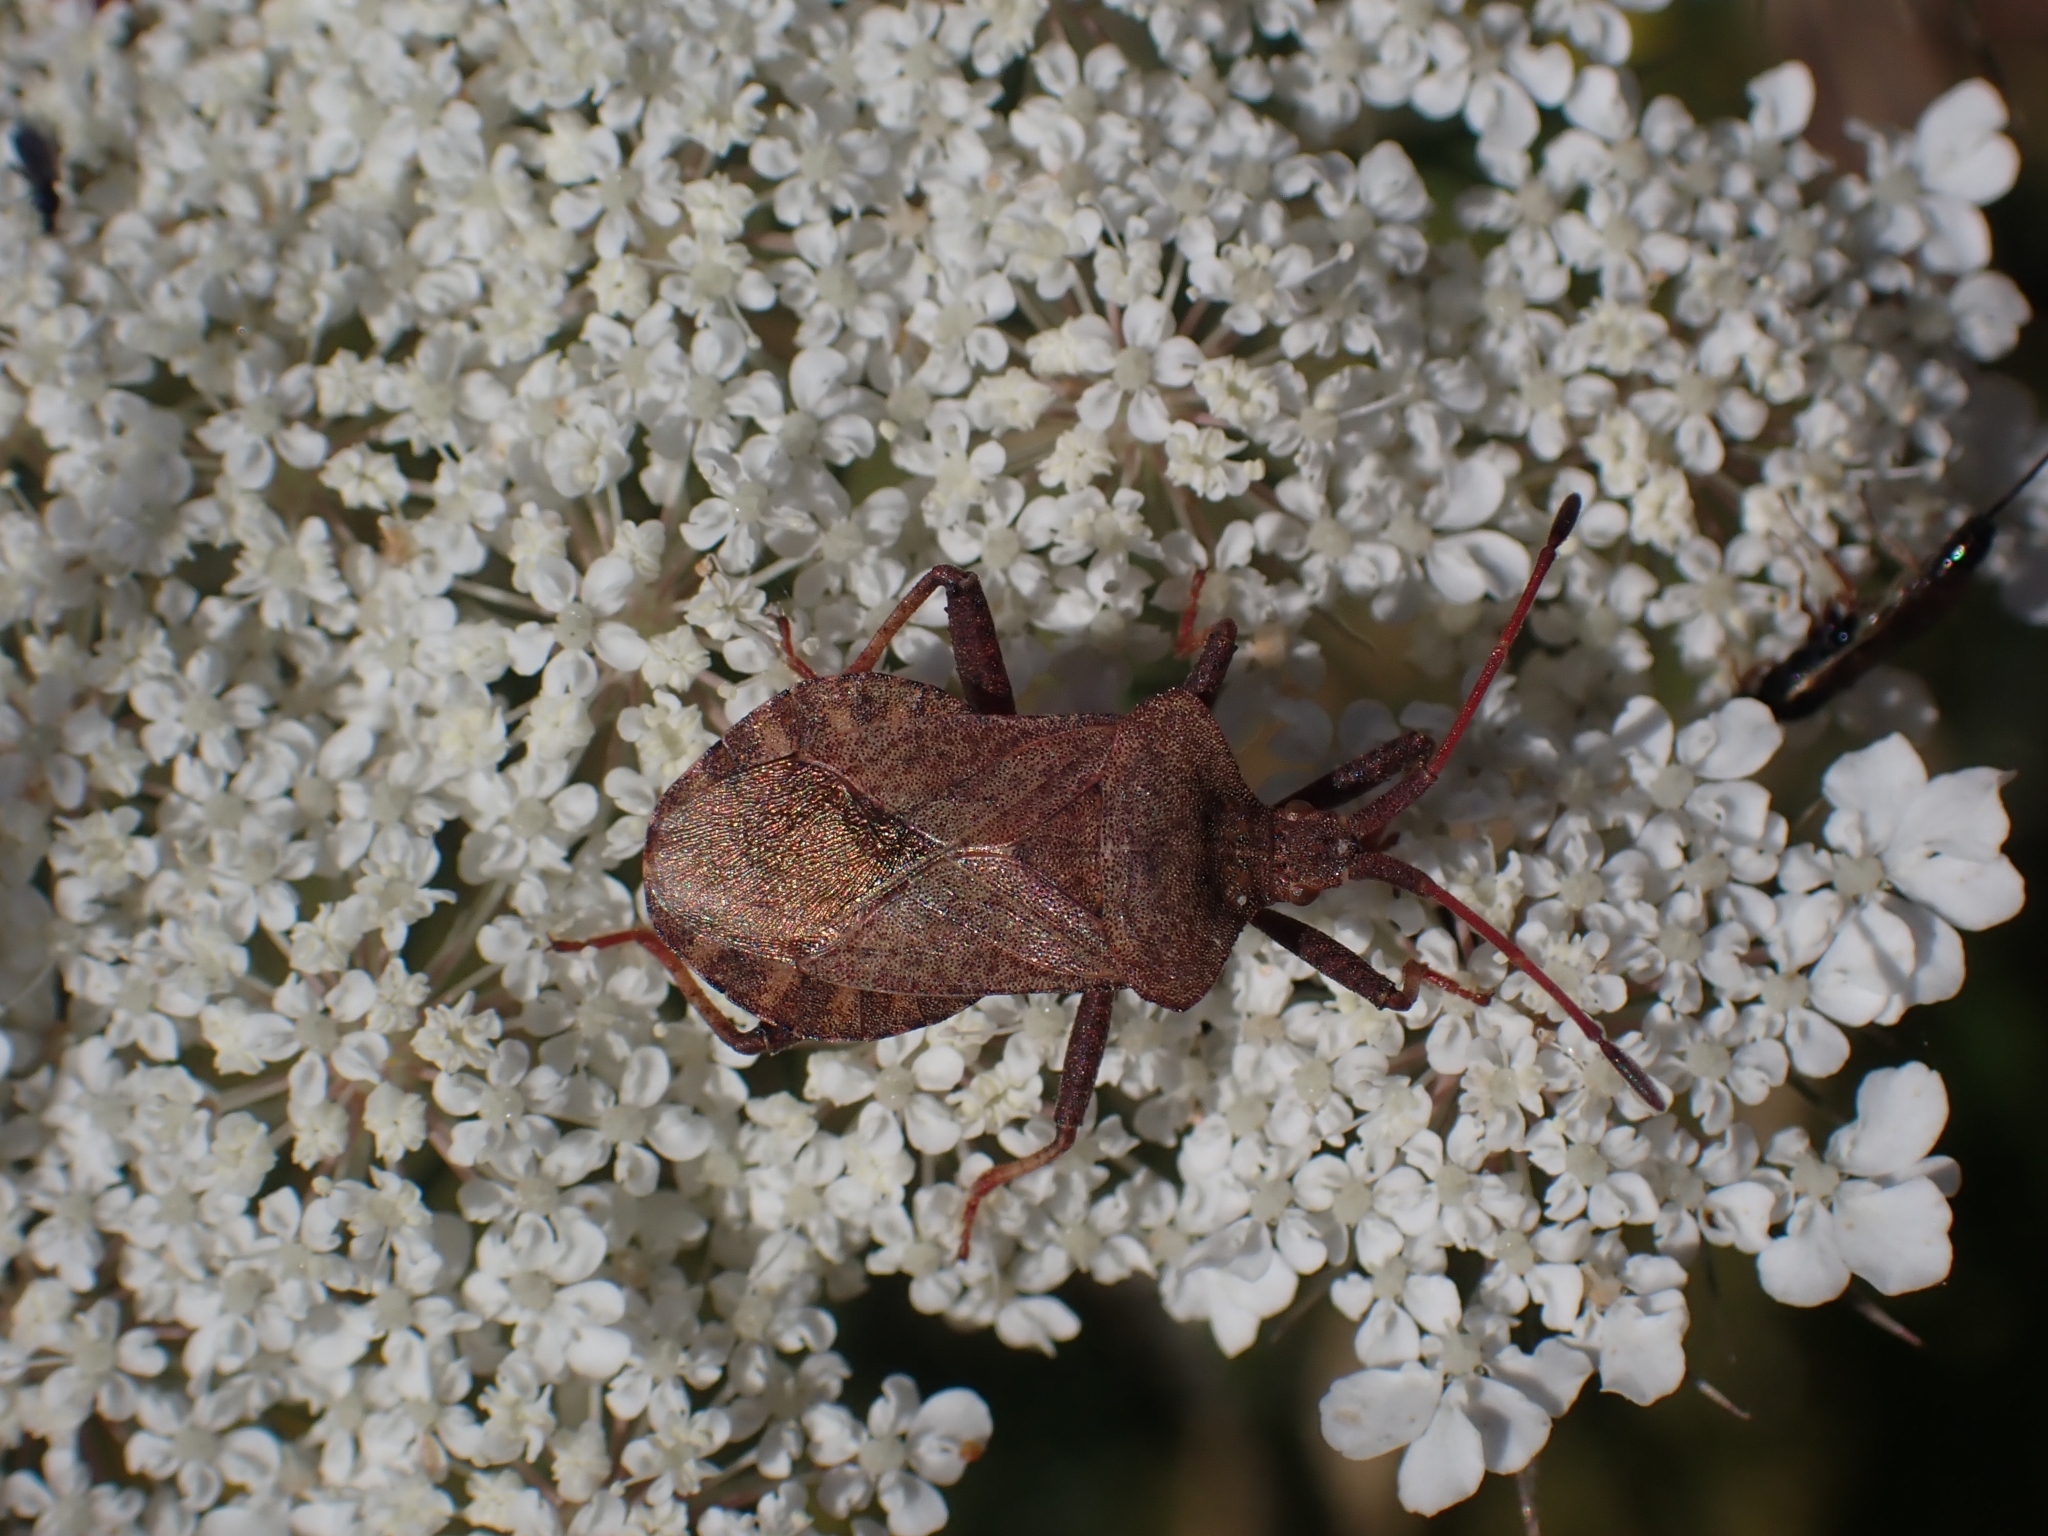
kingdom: Animalia
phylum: Arthropoda
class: Insecta
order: Hemiptera
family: Coreidae
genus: Coreus
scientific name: Coreus marginatus
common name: Dock bug
